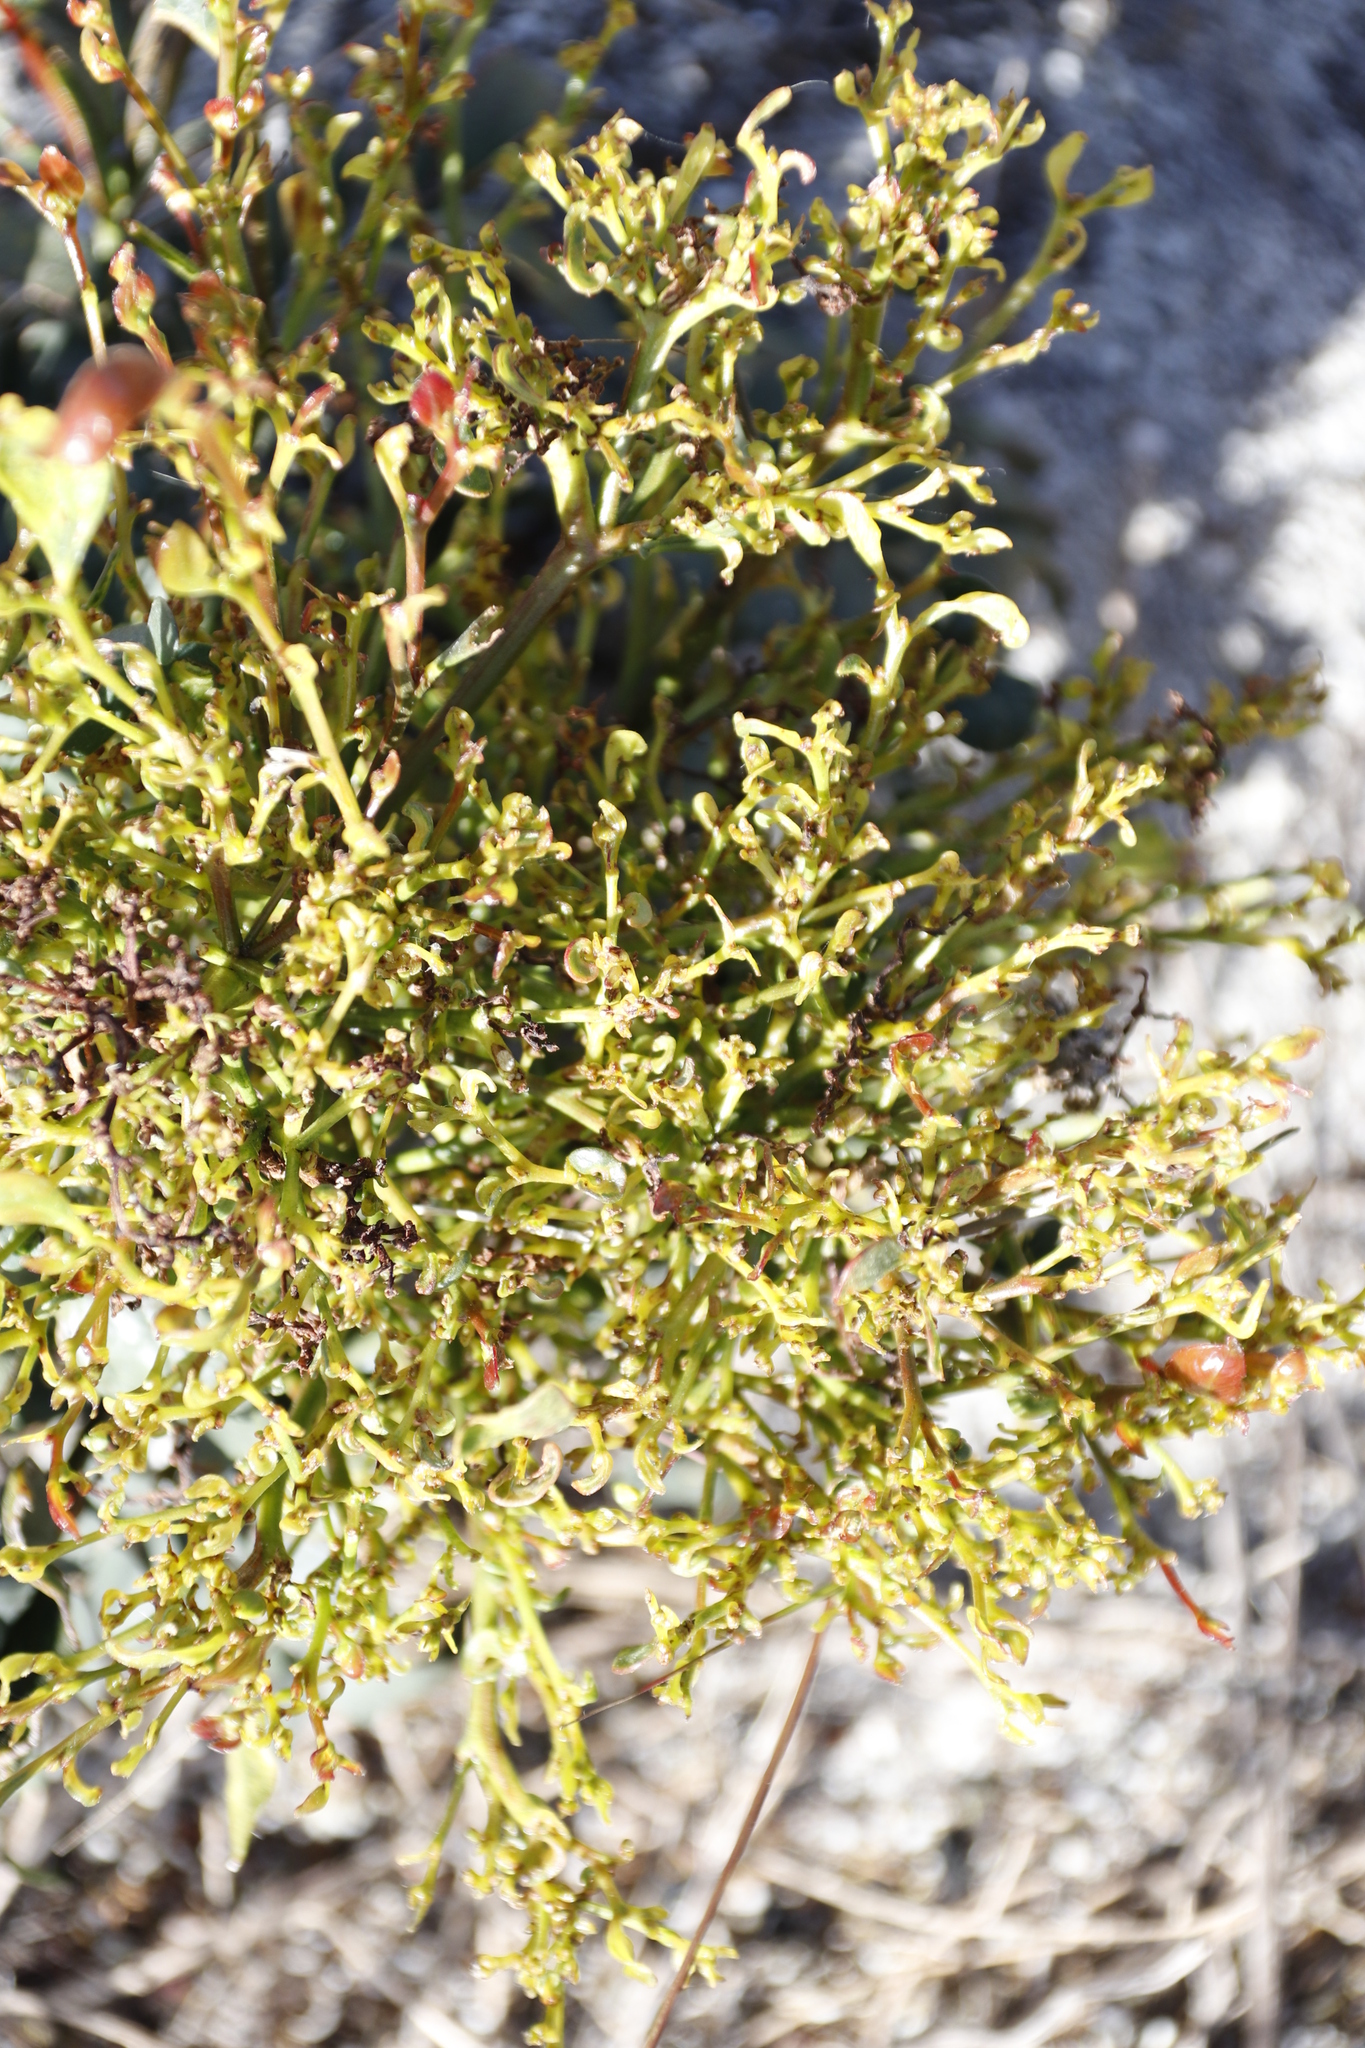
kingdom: Plantae
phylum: Tracheophyta
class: Magnoliopsida
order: Fabales
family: Fabaceae
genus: Acacia
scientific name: Acacia pycnantha
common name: Golden wattle
